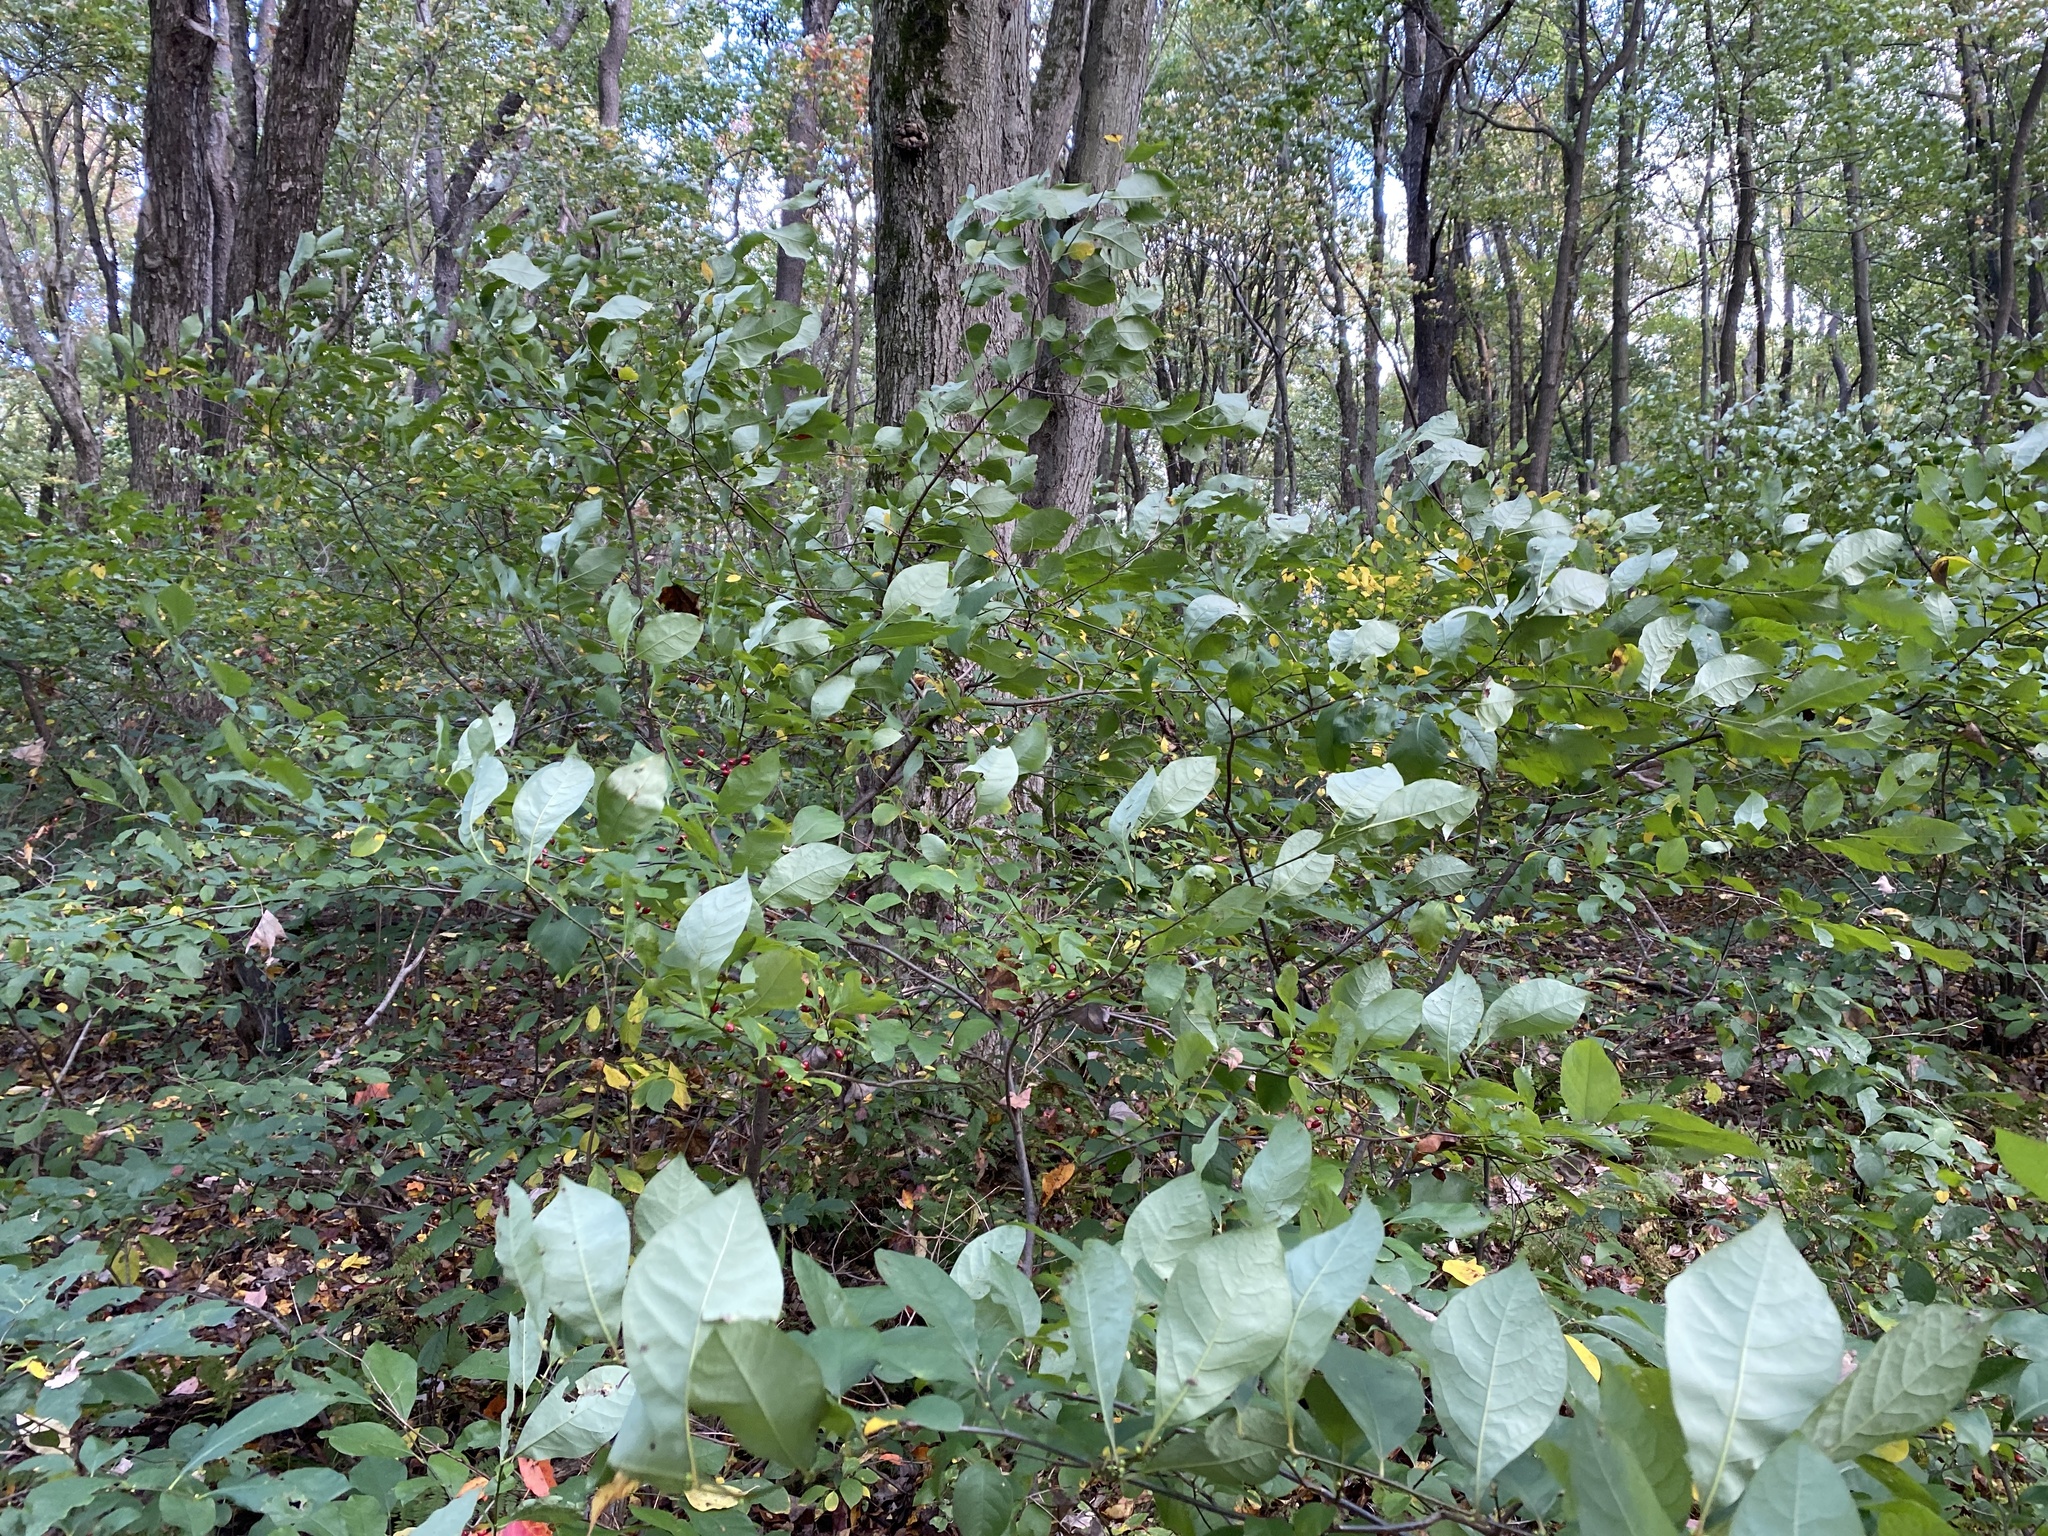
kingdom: Plantae
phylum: Tracheophyta
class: Magnoliopsida
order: Laurales
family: Lauraceae
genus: Lindera
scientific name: Lindera benzoin
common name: Spicebush
